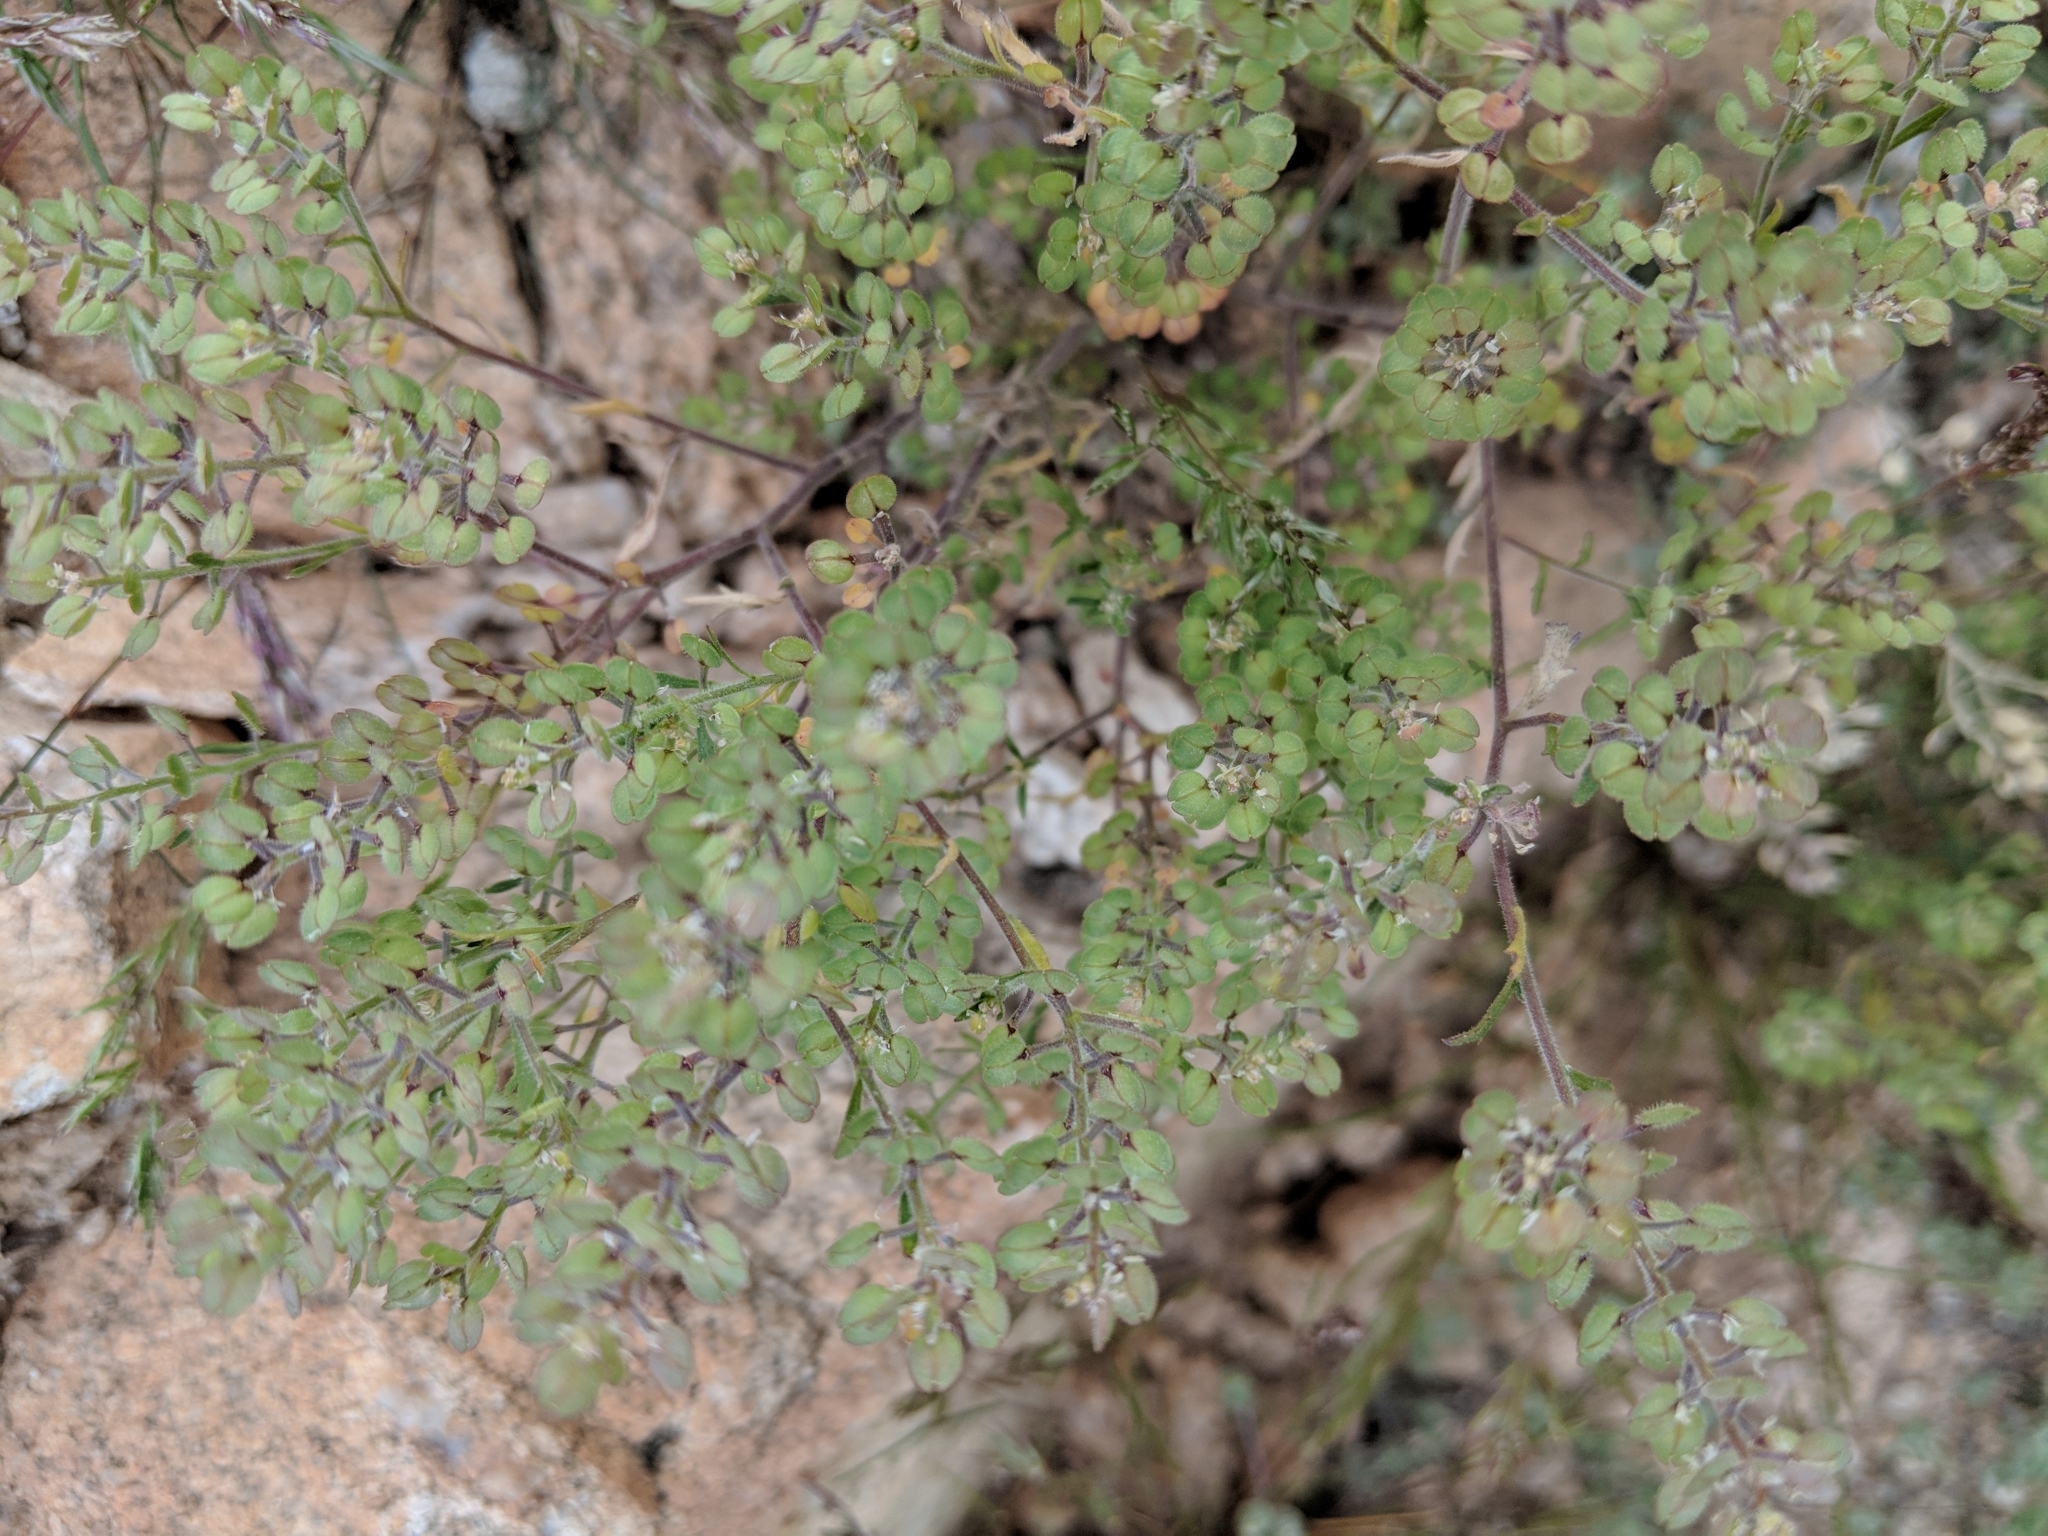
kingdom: Plantae
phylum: Tracheophyta
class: Magnoliopsida
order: Brassicales
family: Brassicaceae
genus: Lepidium
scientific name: Lepidium lasiocarpum
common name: Hairy-pod pepperwort
